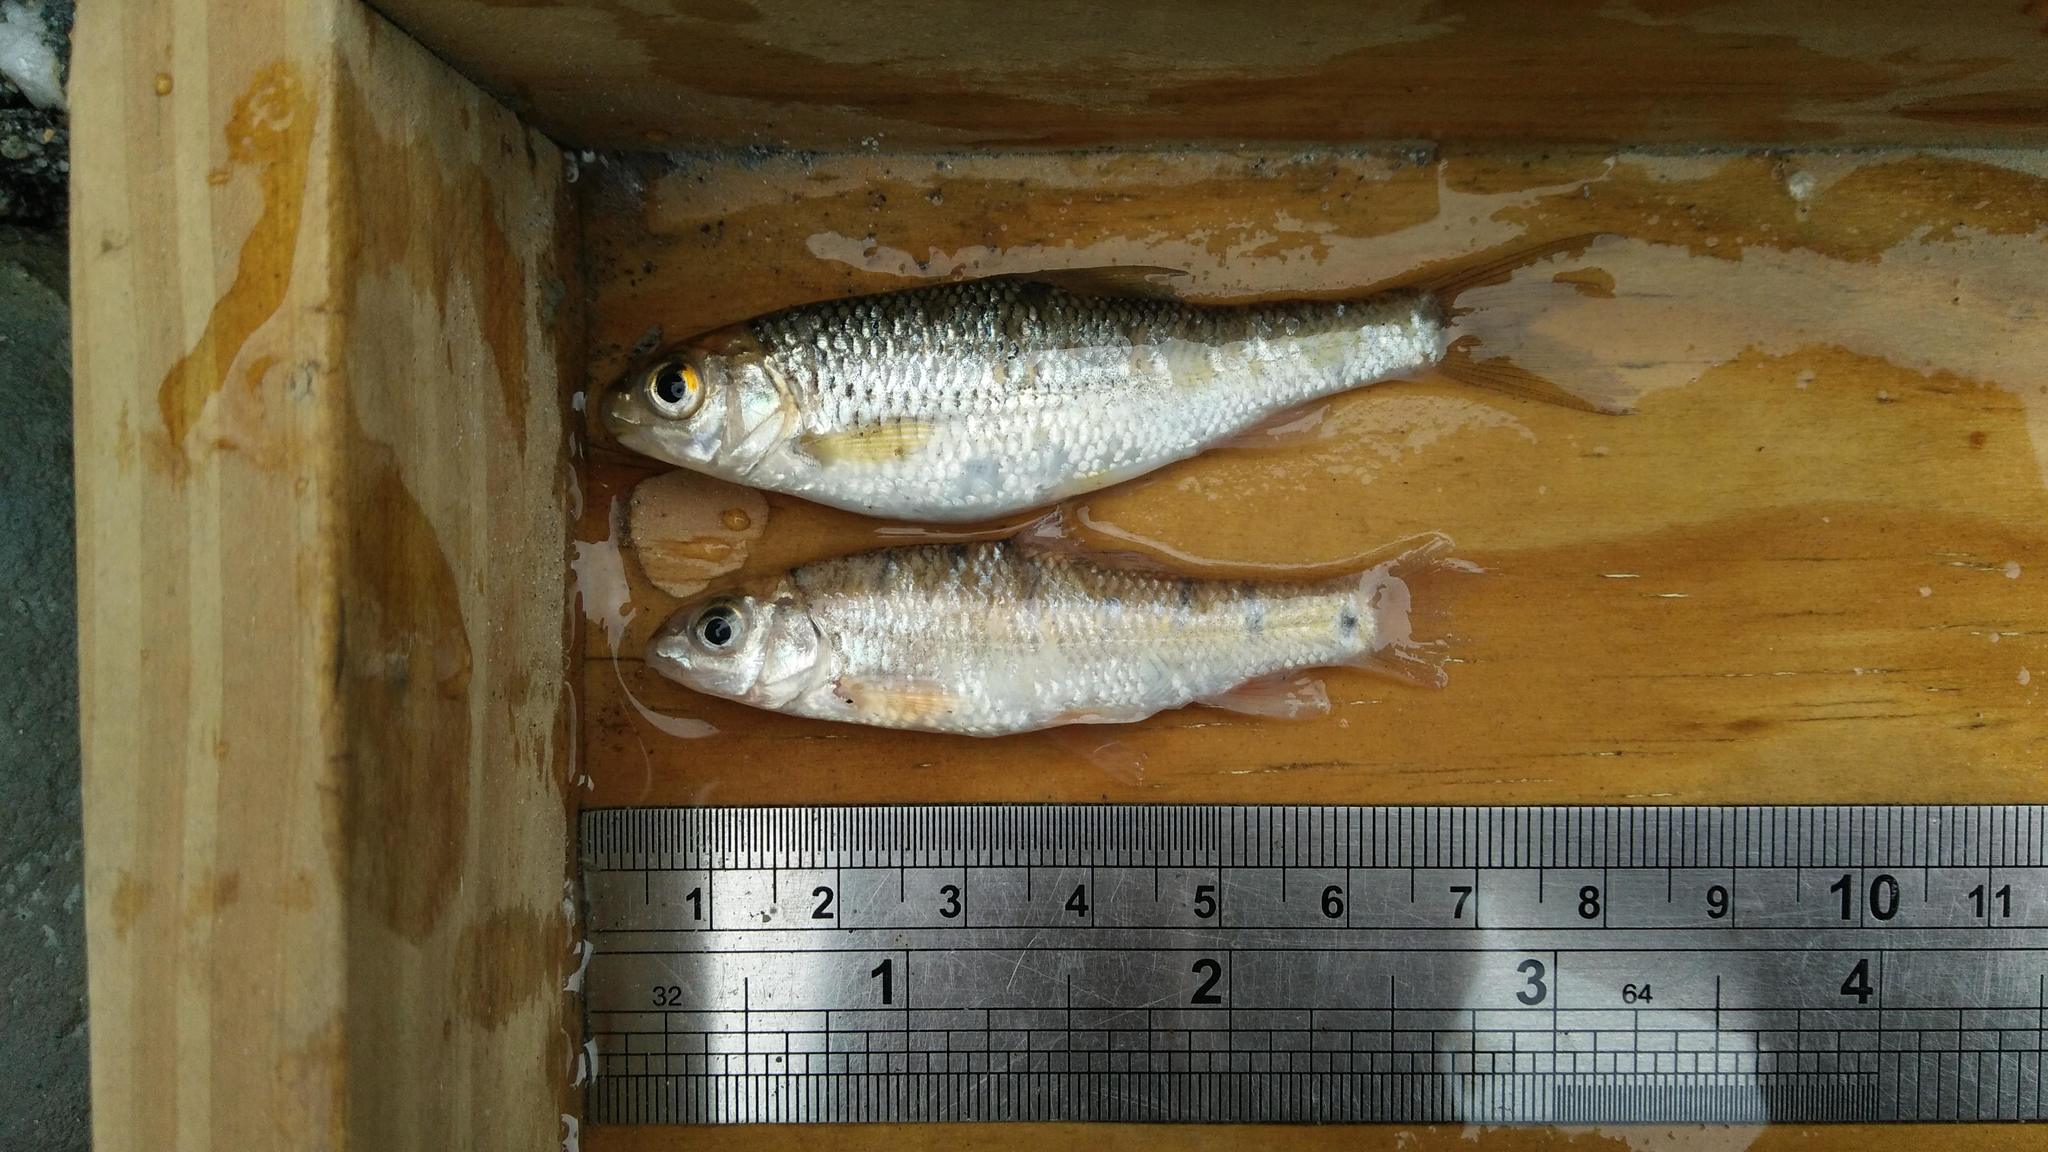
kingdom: Animalia
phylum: Chordata
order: Cypriniformes
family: Cyprinidae
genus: Onychostoma
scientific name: Onychostoma barbatulum
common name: Taiwan shoveljaw carp
